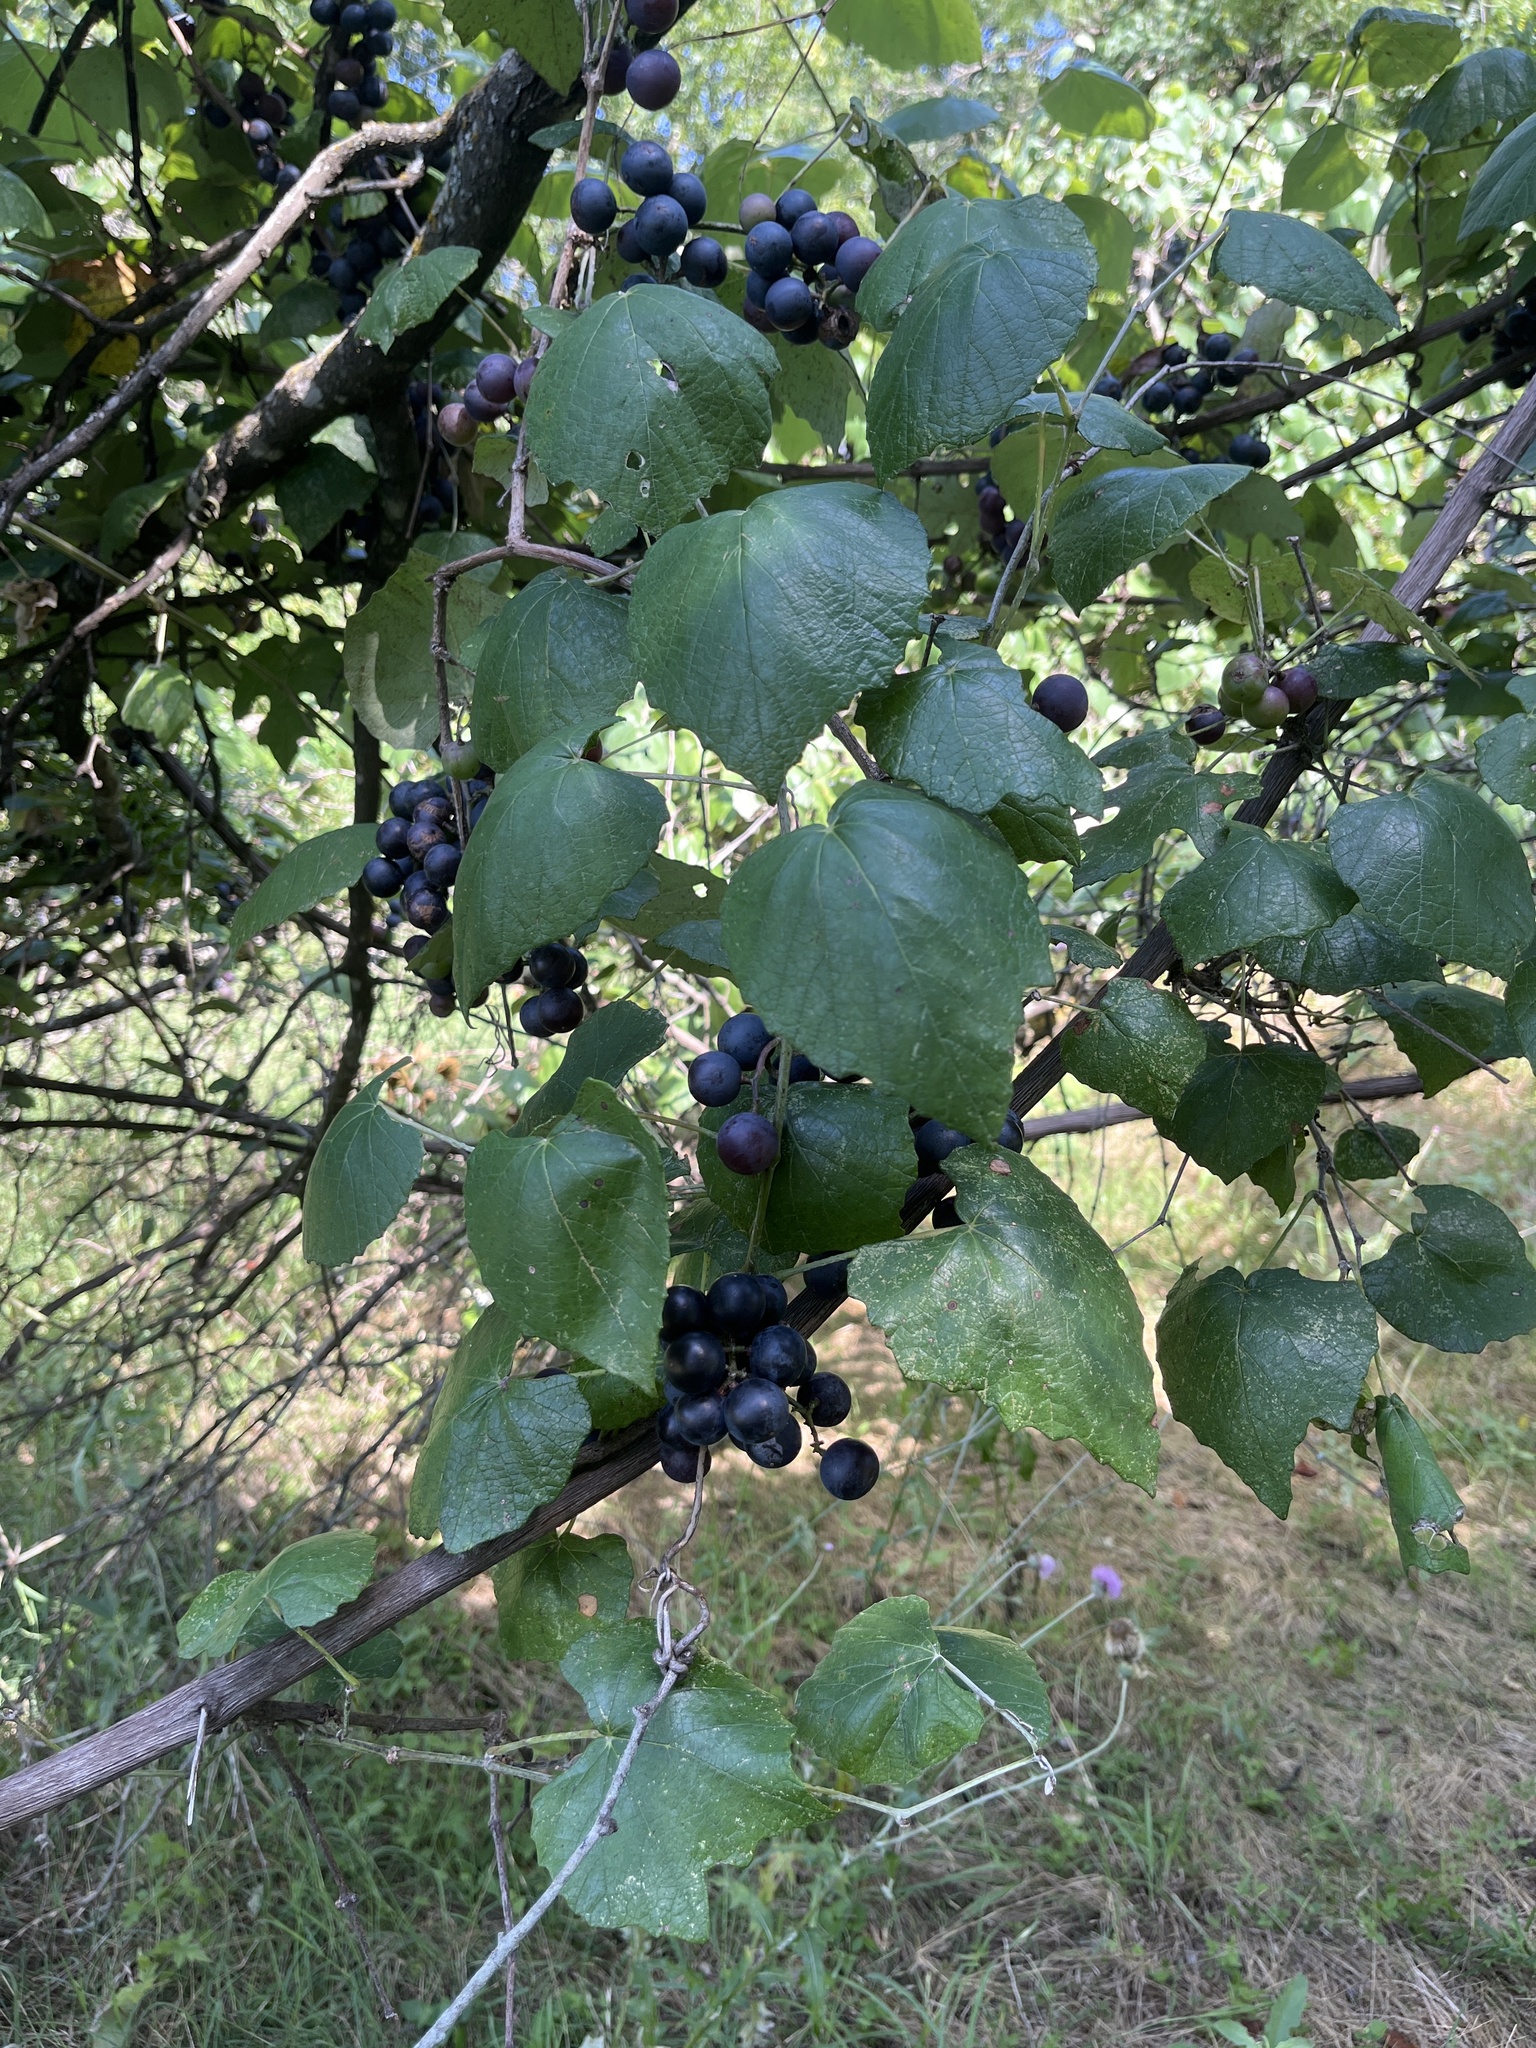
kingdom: Plantae
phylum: Tracheophyta
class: Magnoliopsida
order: Vitales
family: Vitaceae
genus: Vitis
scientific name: Vitis mustangensis
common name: Mustang grape
